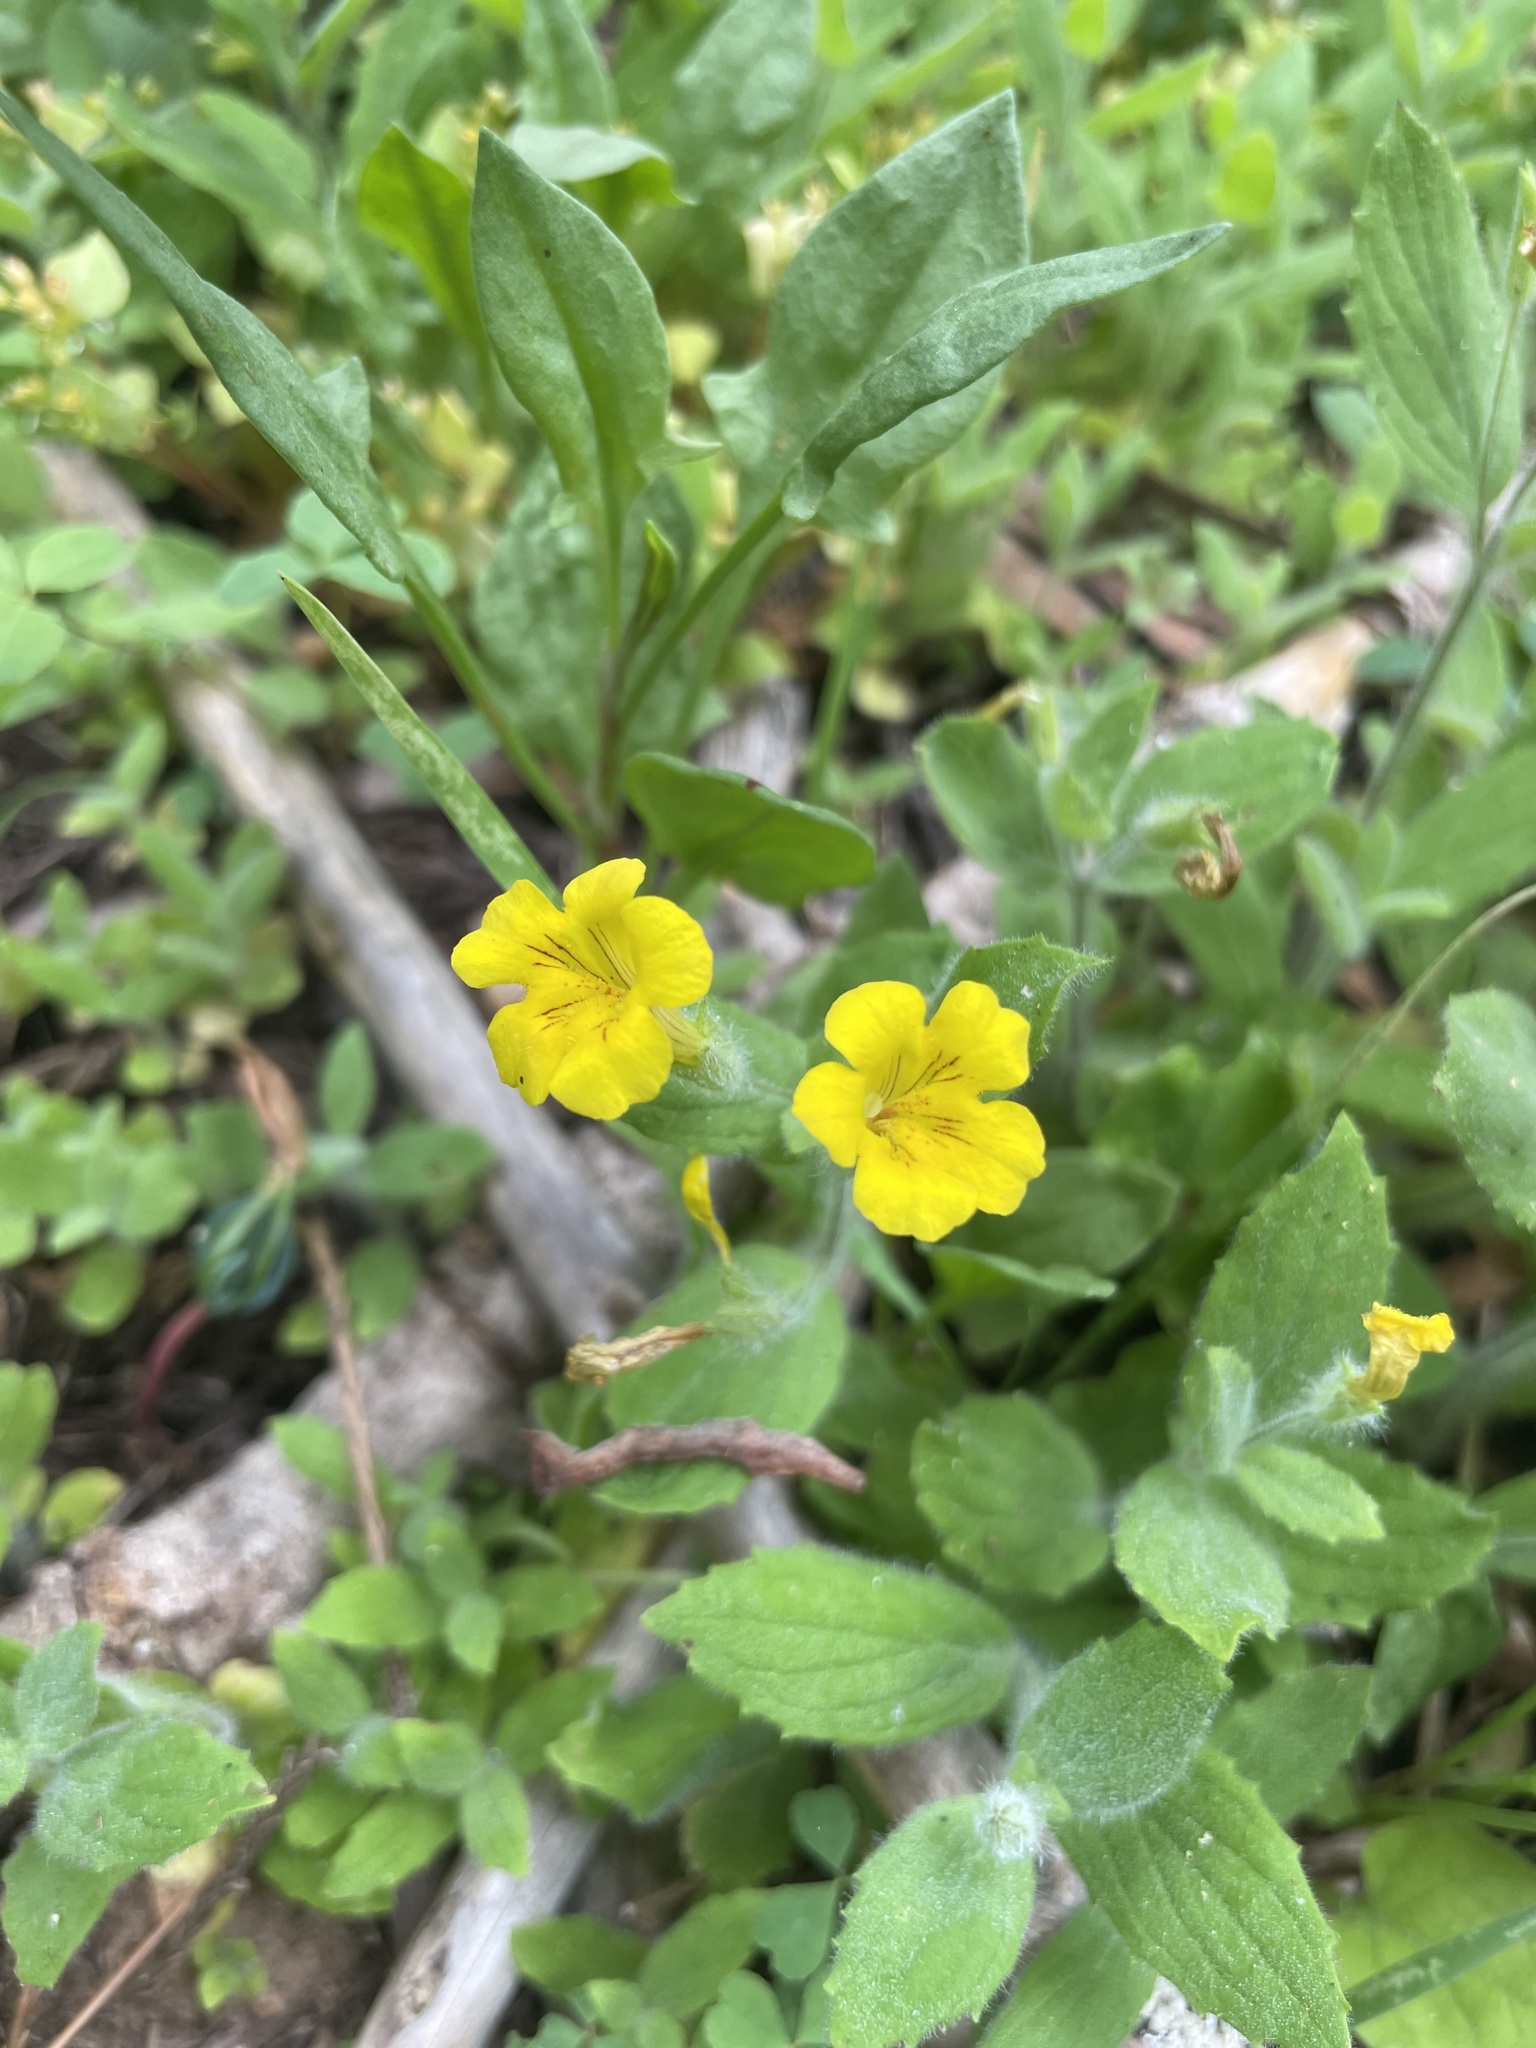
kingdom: Plantae
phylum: Tracheophyta
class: Magnoliopsida
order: Lamiales
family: Phrymaceae
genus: Erythranthe
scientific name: Erythranthe moschata
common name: Muskflower
